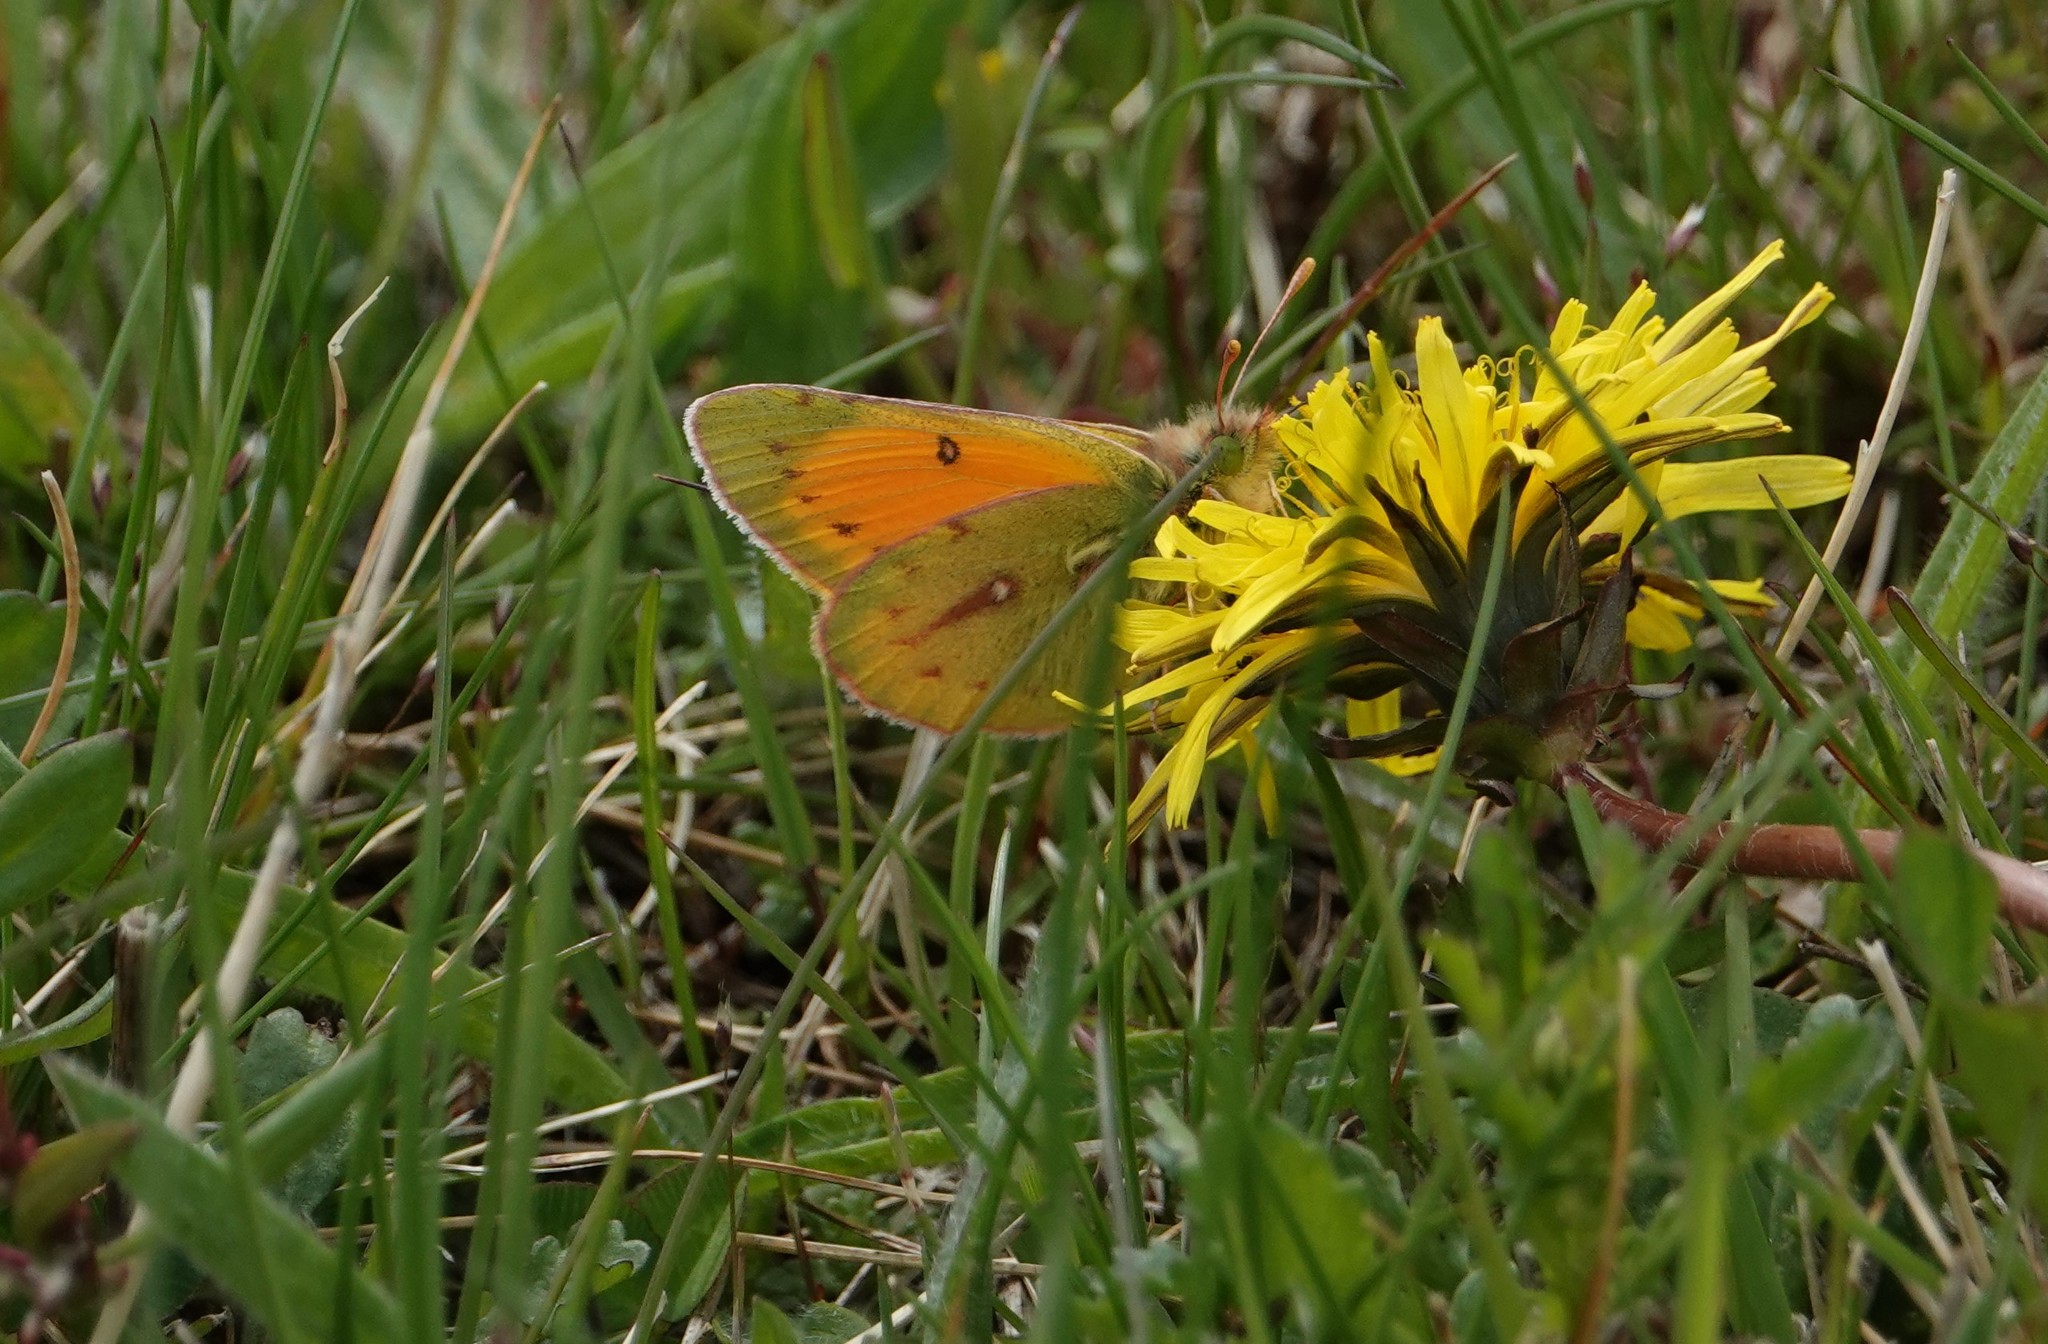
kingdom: Animalia
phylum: Arthropoda
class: Insecta
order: Lepidoptera
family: Pieridae
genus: Colias
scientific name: Colias vauthierii
